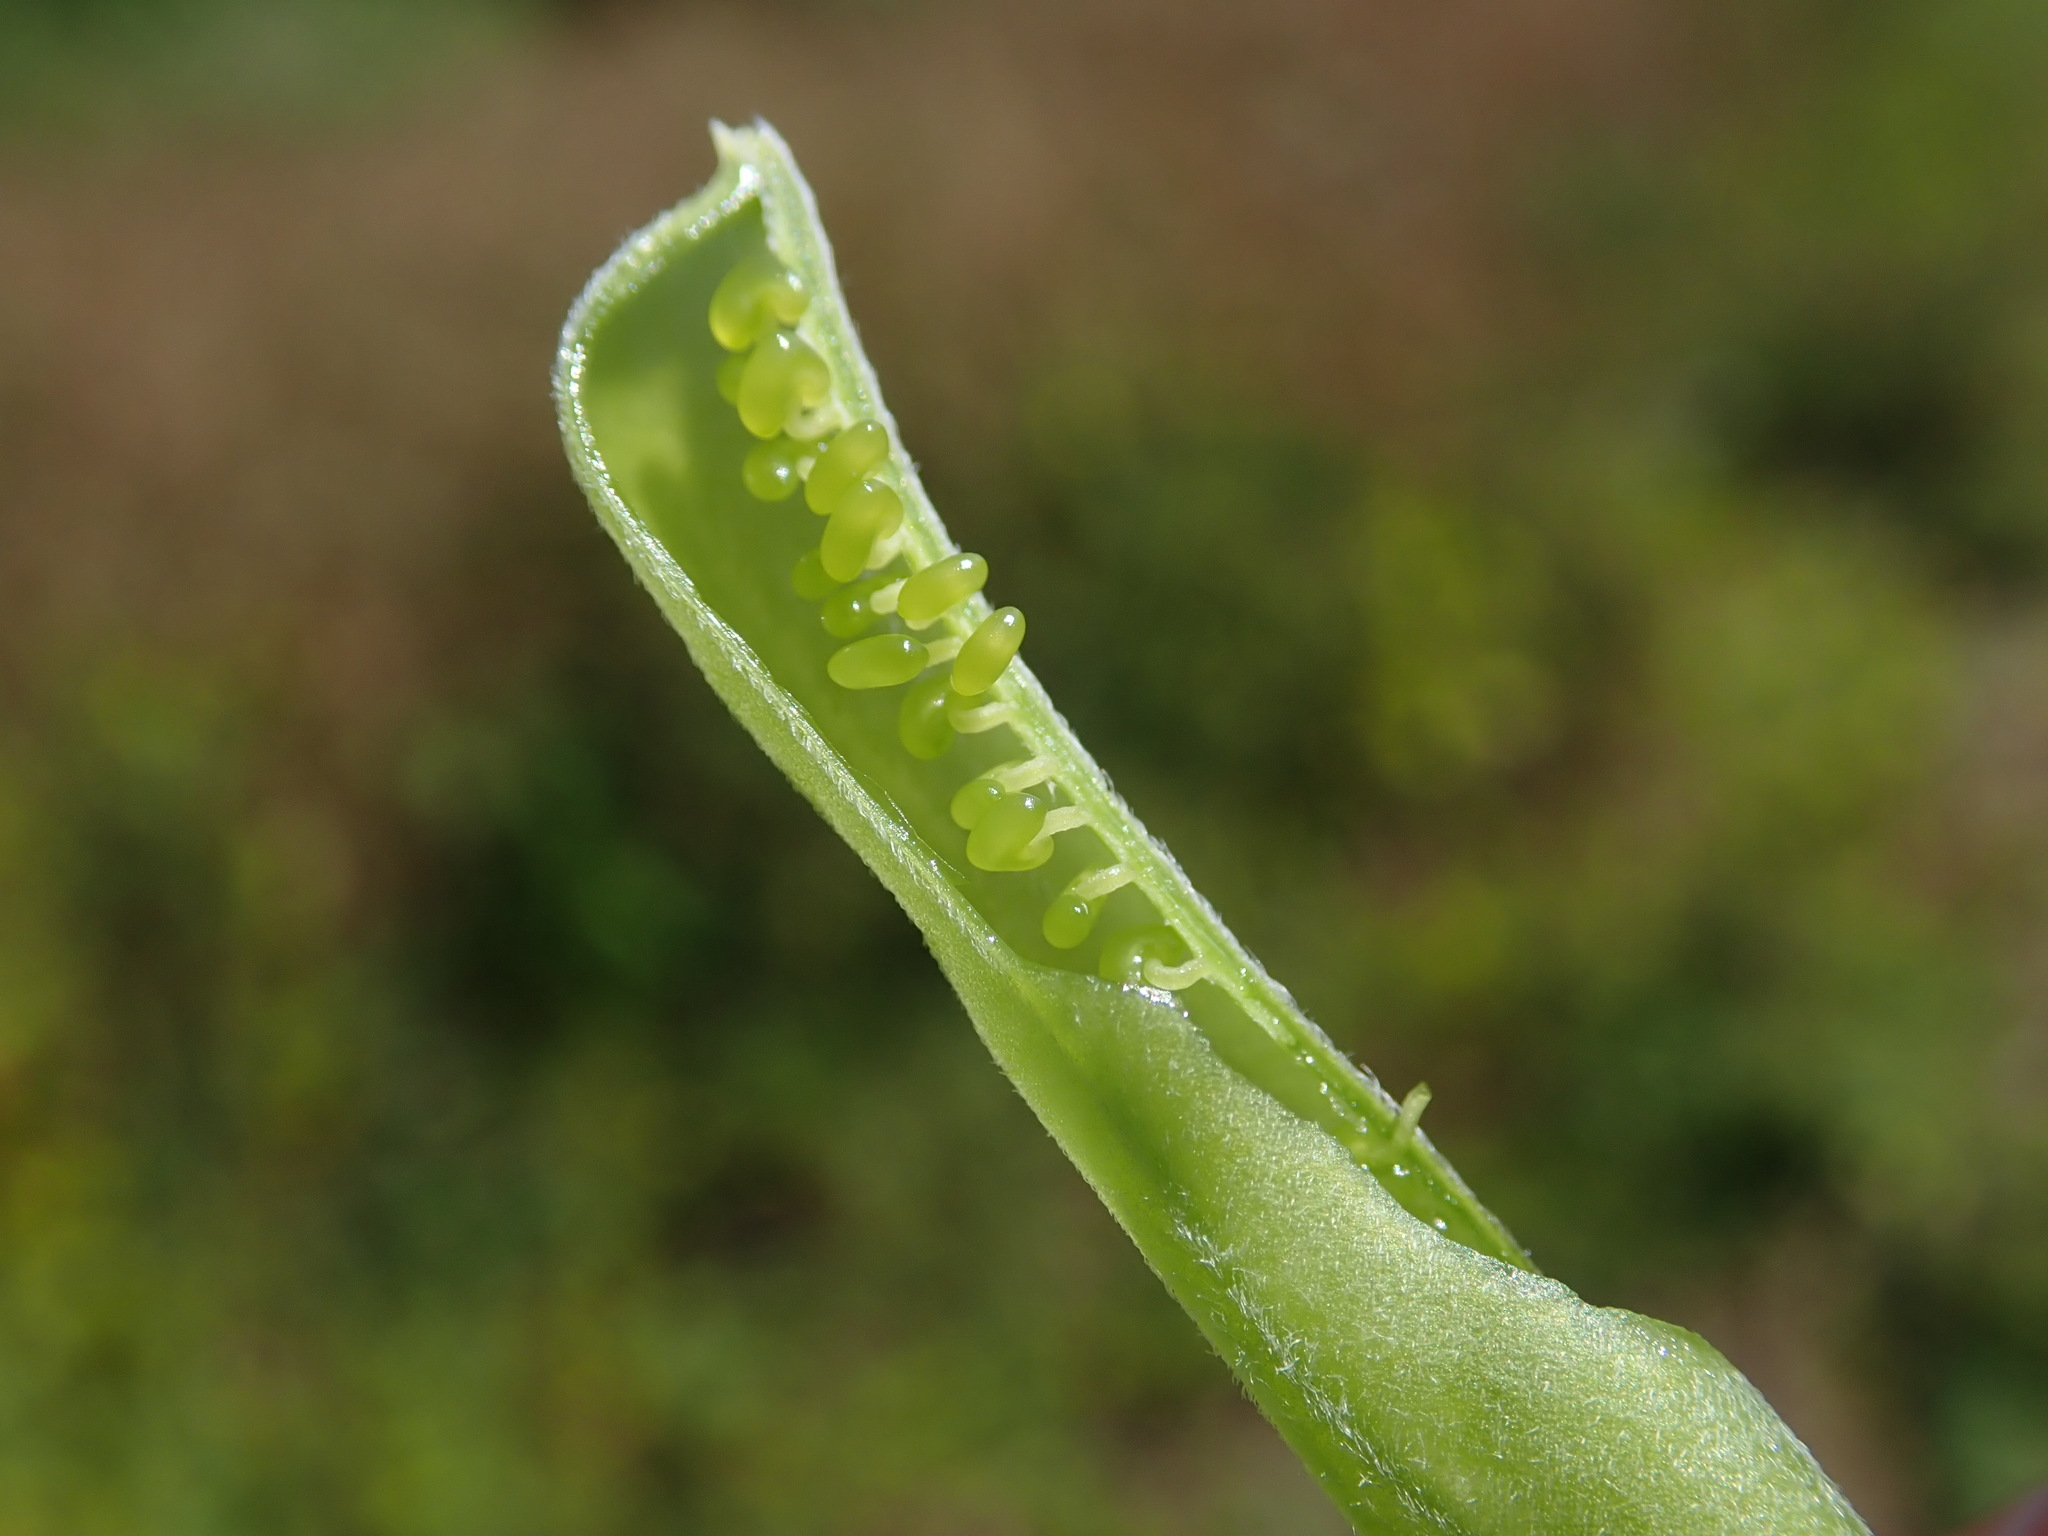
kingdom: Plantae
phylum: Tracheophyta
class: Magnoliopsida
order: Fabales
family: Fabaceae
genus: Crotalaria
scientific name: Crotalaria pallida
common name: Smooth rattlebox
